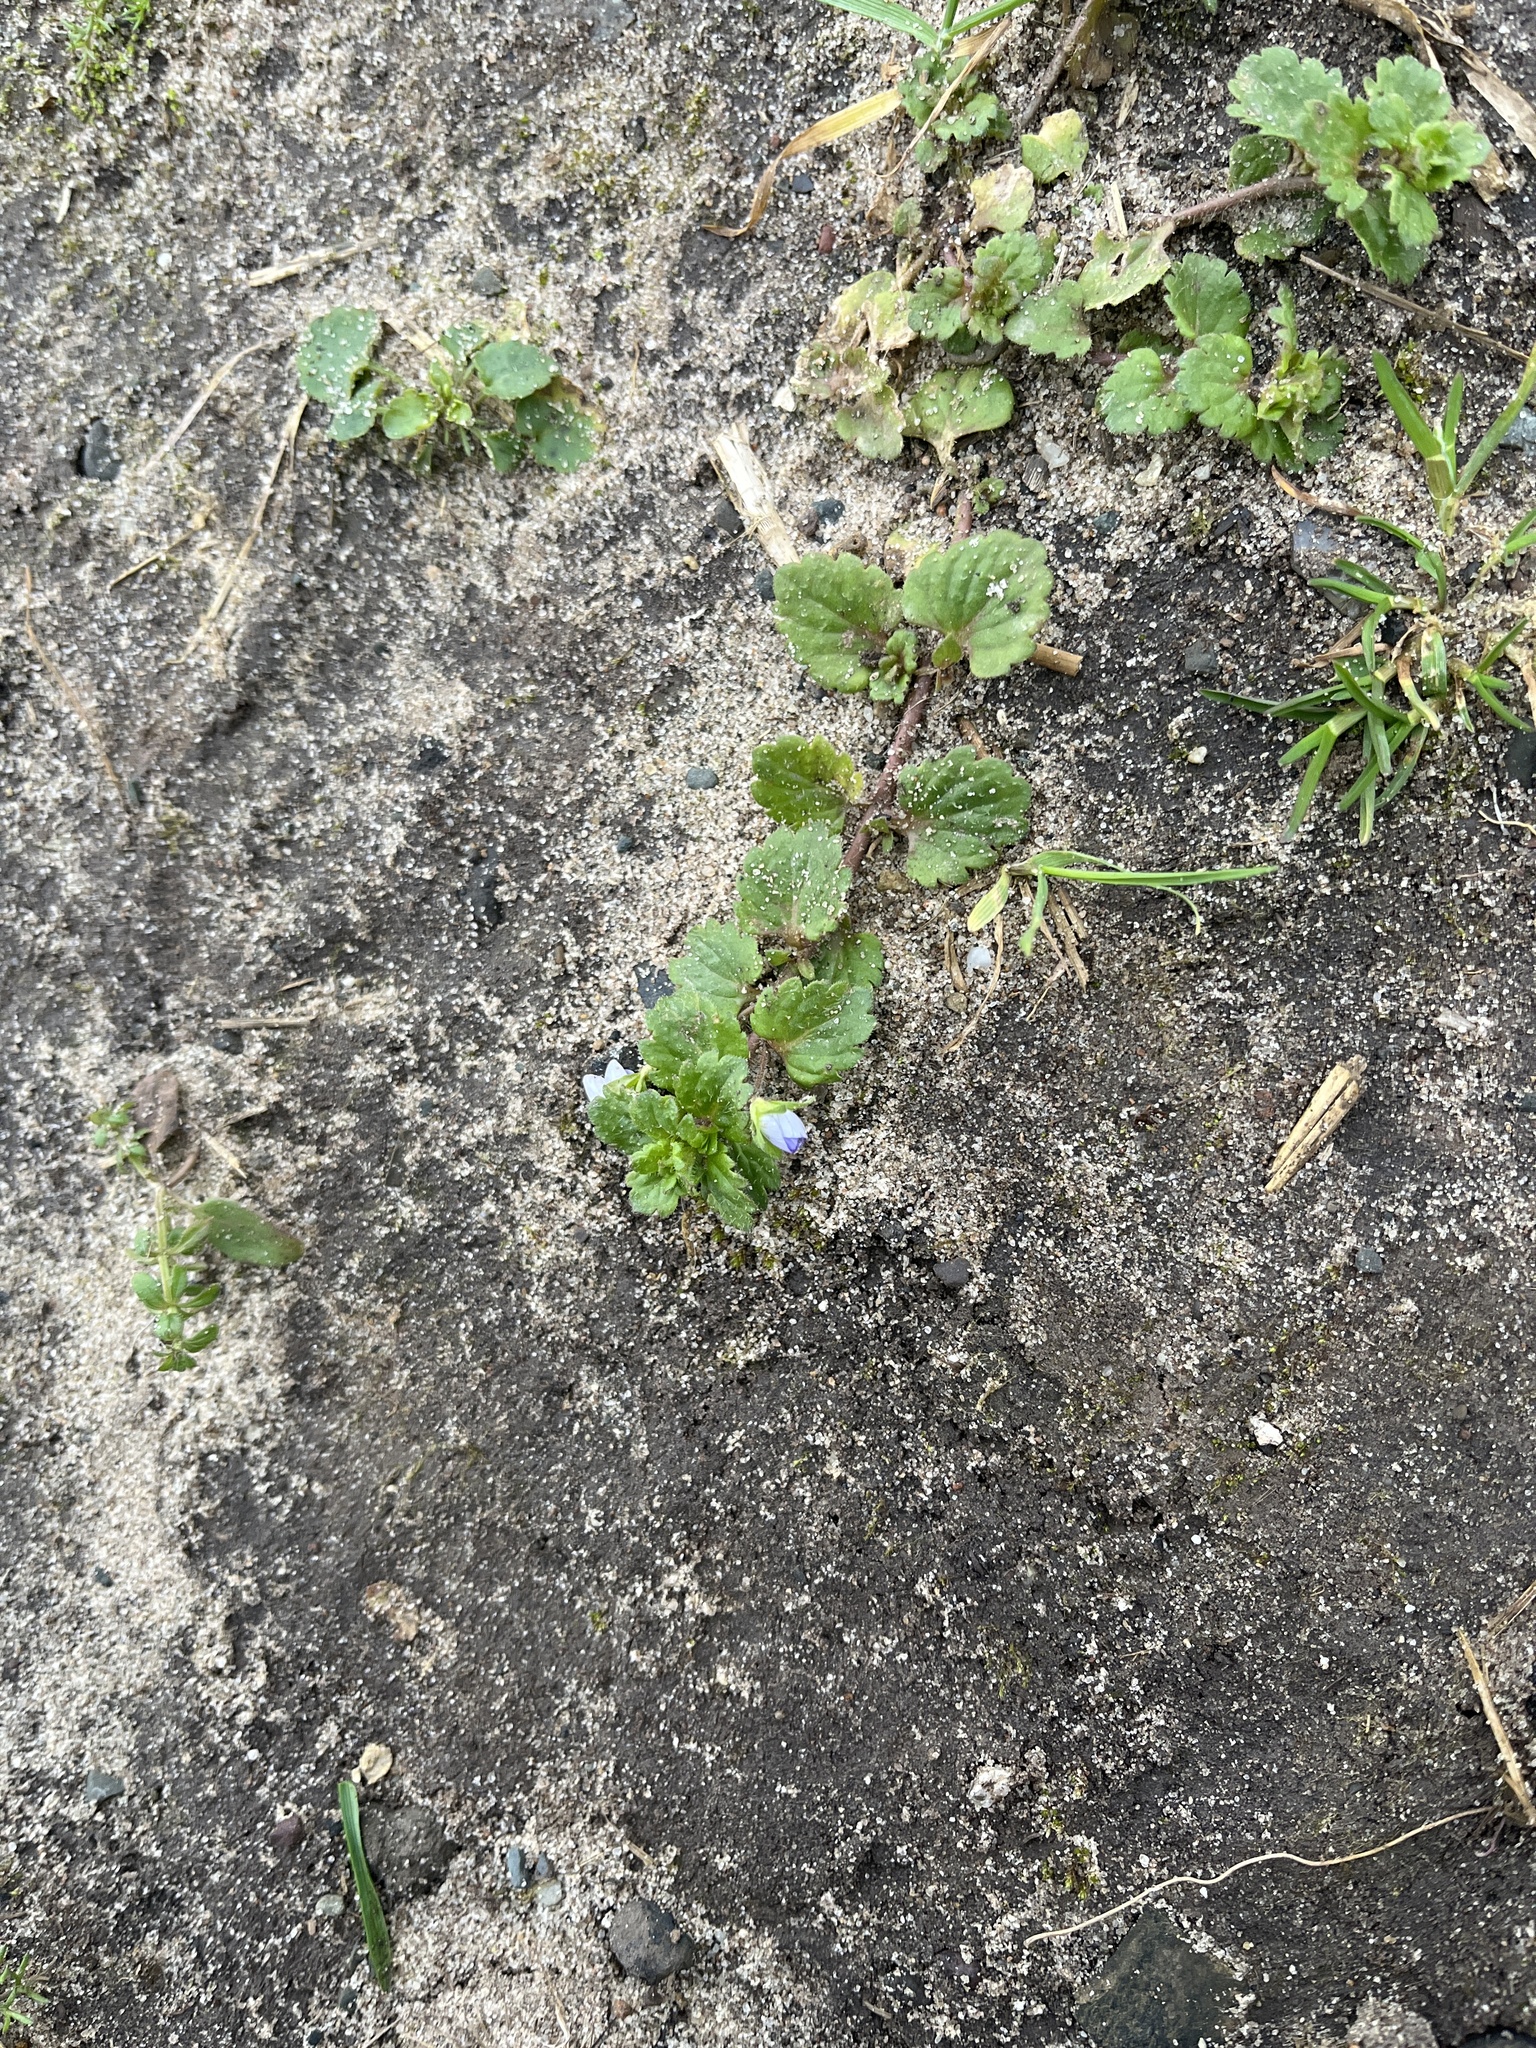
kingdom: Plantae
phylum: Tracheophyta
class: Magnoliopsida
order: Lamiales
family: Plantaginaceae
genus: Veronica
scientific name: Veronica persica
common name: Common field-speedwell
